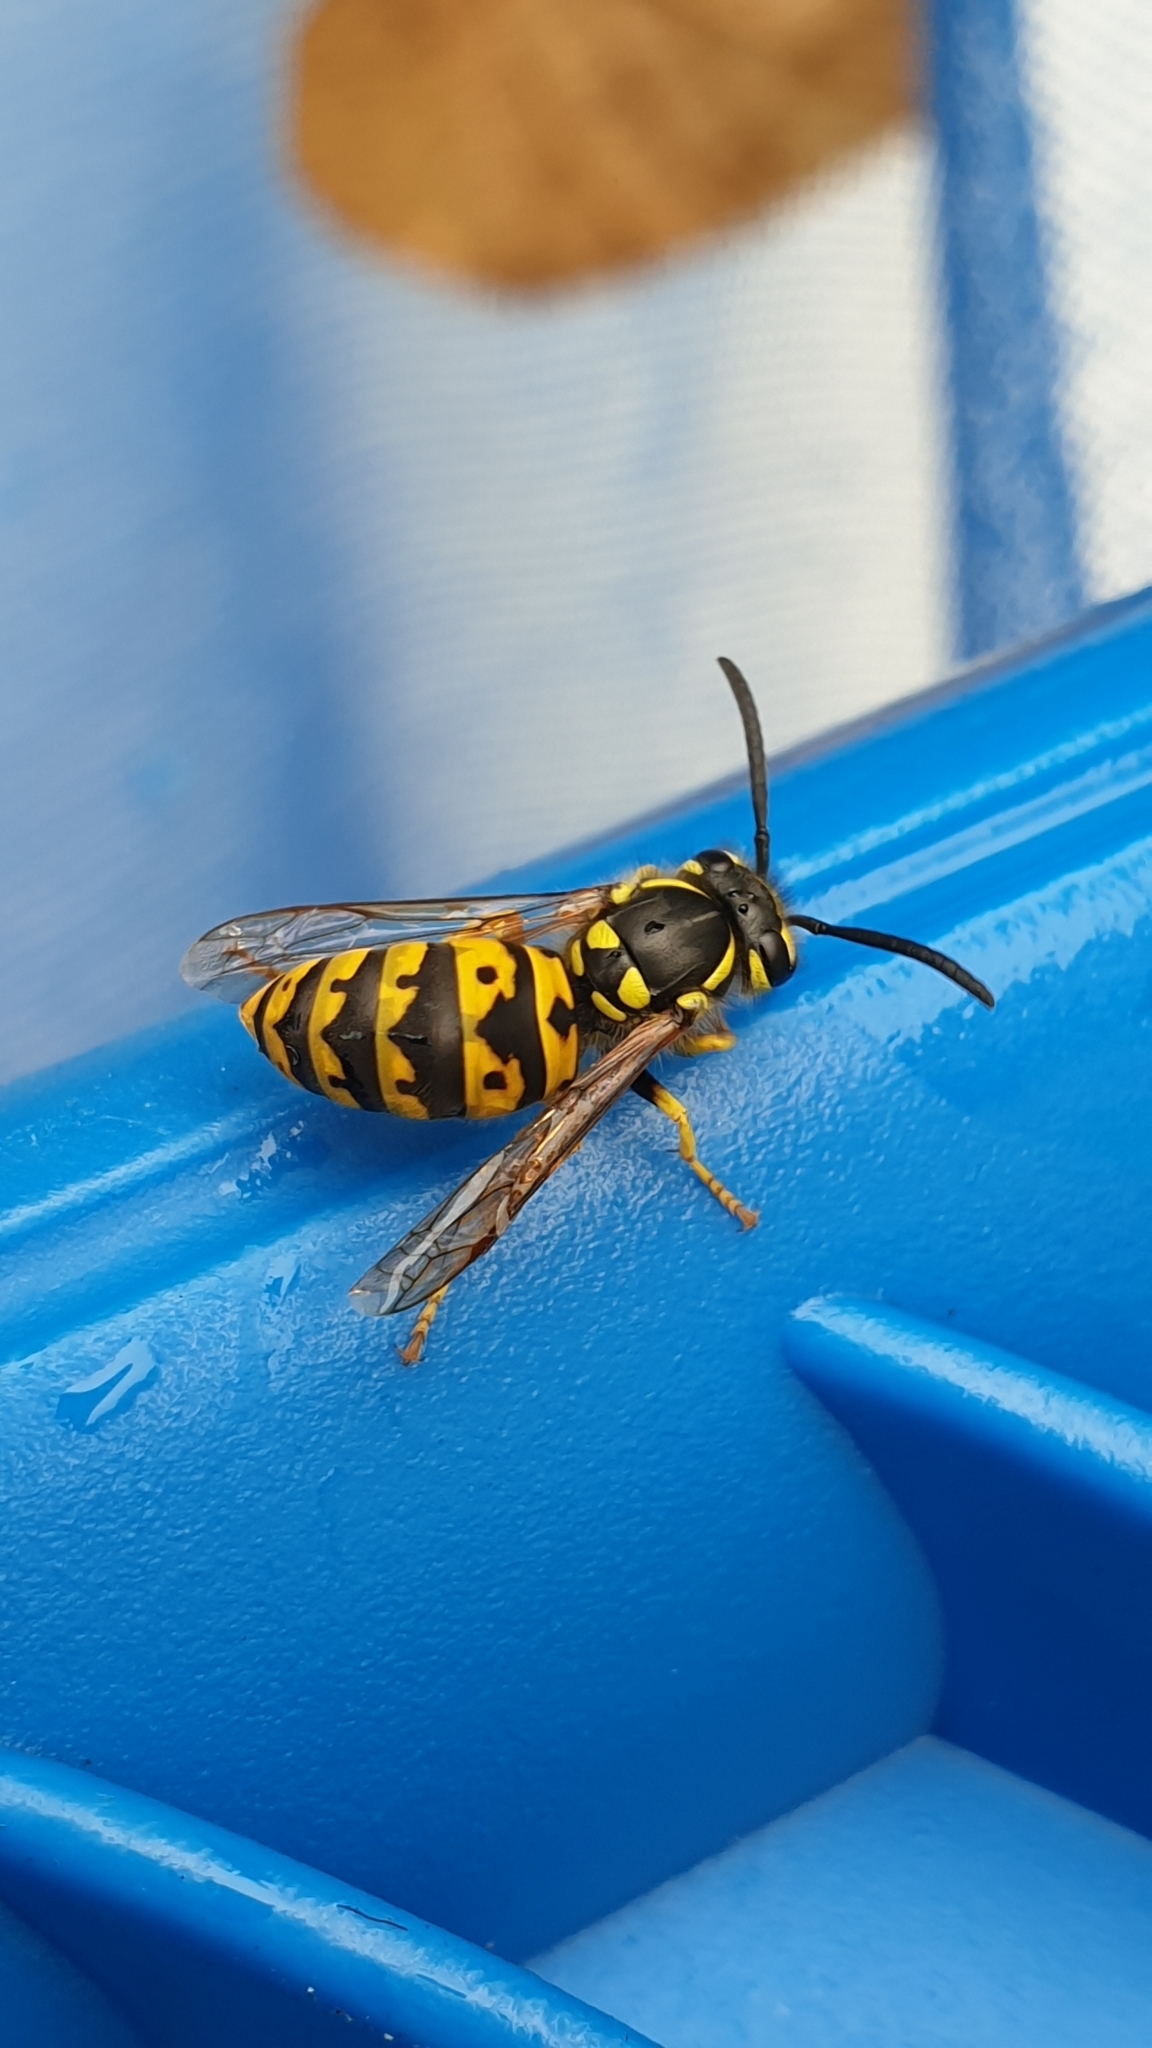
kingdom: Animalia
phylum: Arthropoda
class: Insecta
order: Hymenoptera
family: Vespidae
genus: Vespula
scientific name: Vespula germanica
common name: German wasp
